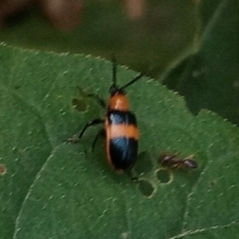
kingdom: Animalia
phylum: Arthropoda
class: Insecta
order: Coleoptera
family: Chrysomelidae
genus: Lema
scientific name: Lema solani
